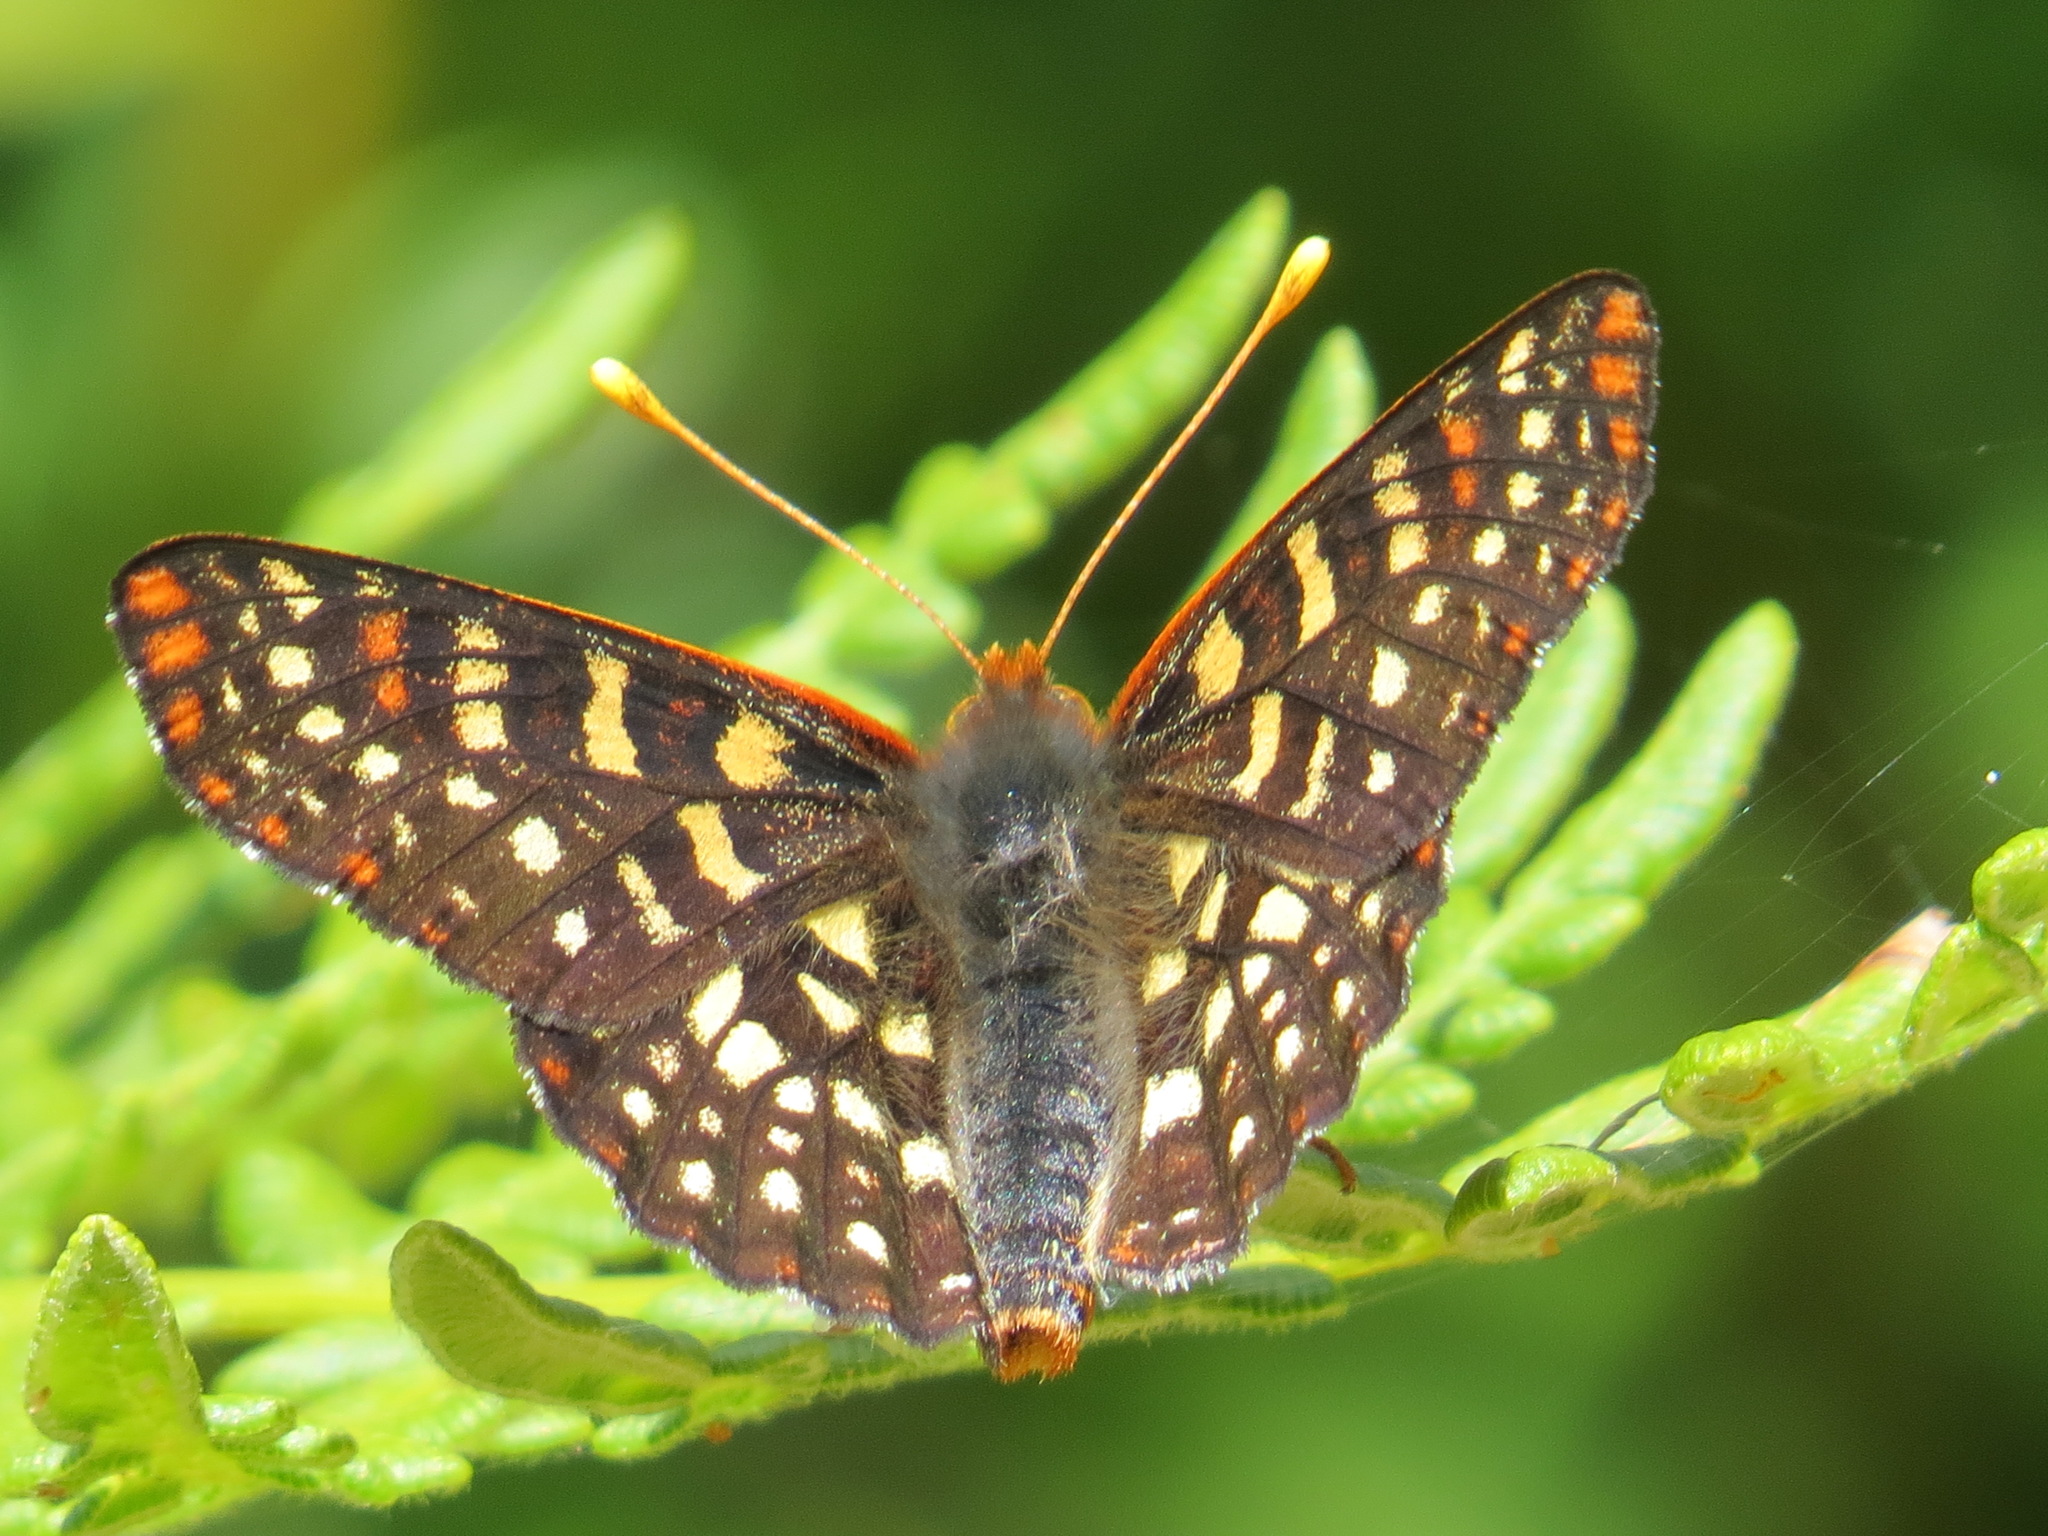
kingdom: Animalia
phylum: Arthropoda
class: Insecta
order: Lepidoptera
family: Nymphalidae
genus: Occidryas
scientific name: Occidryas chalcedona
